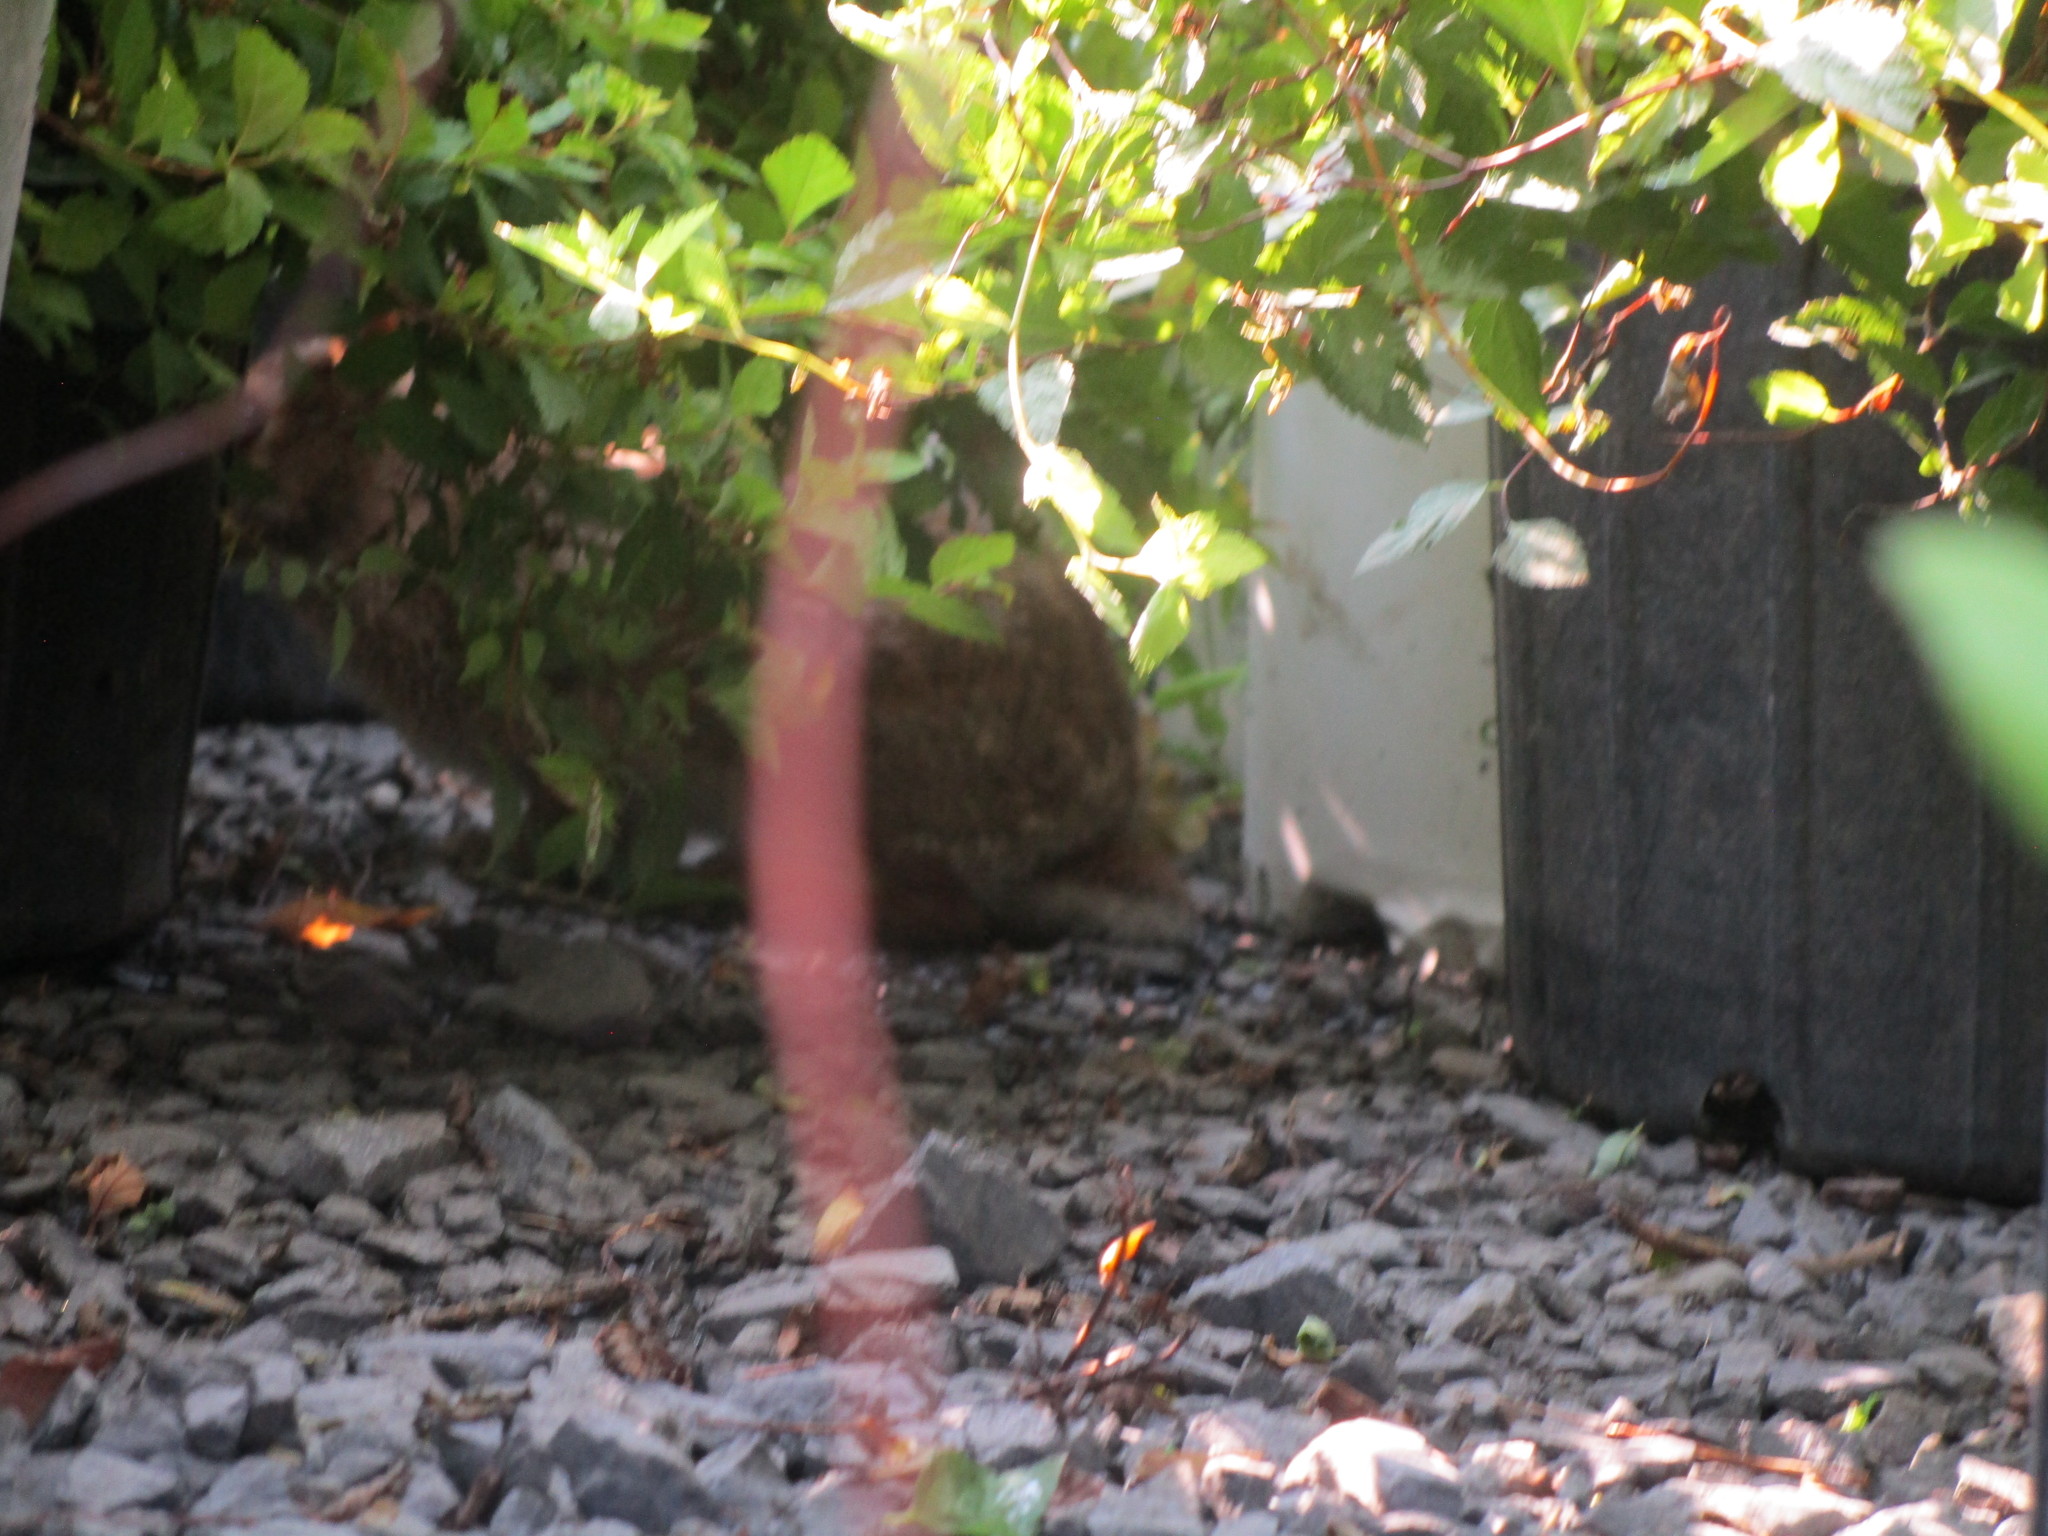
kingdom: Animalia
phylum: Chordata
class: Mammalia
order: Lagomorpha
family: Leporidae
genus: Sylvilagus
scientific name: Sylvilagus floridanus
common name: Eastern cottontail
